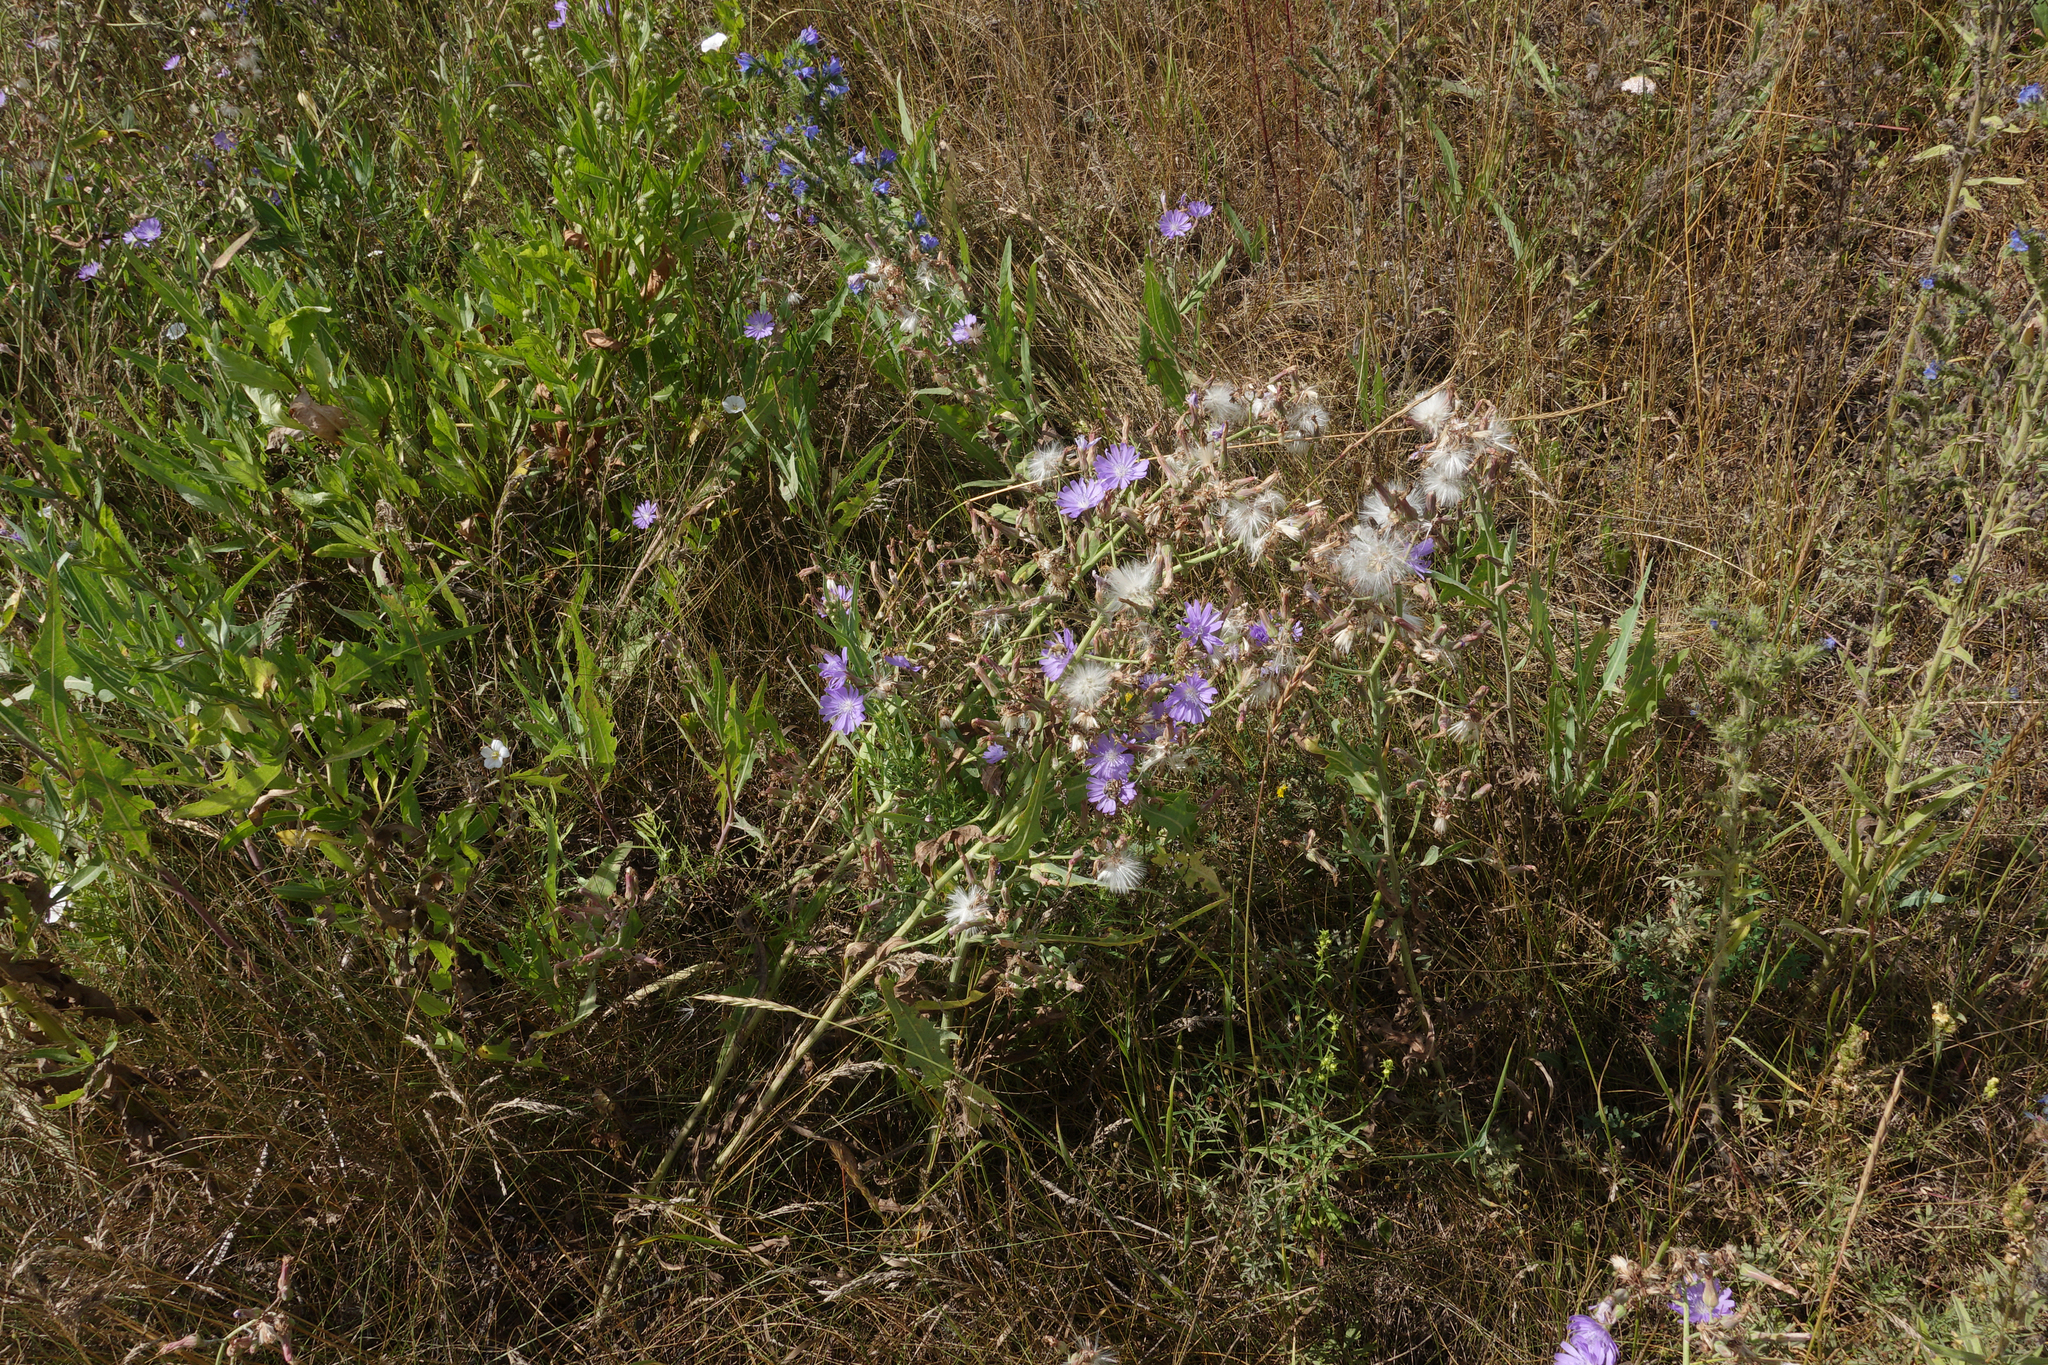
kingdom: Plantae
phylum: Tracheophyta
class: Magnoliopsida
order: Asterales
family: Asteraceae
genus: Lactuca
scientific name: Lactuca tatarica
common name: Blue lettuce
